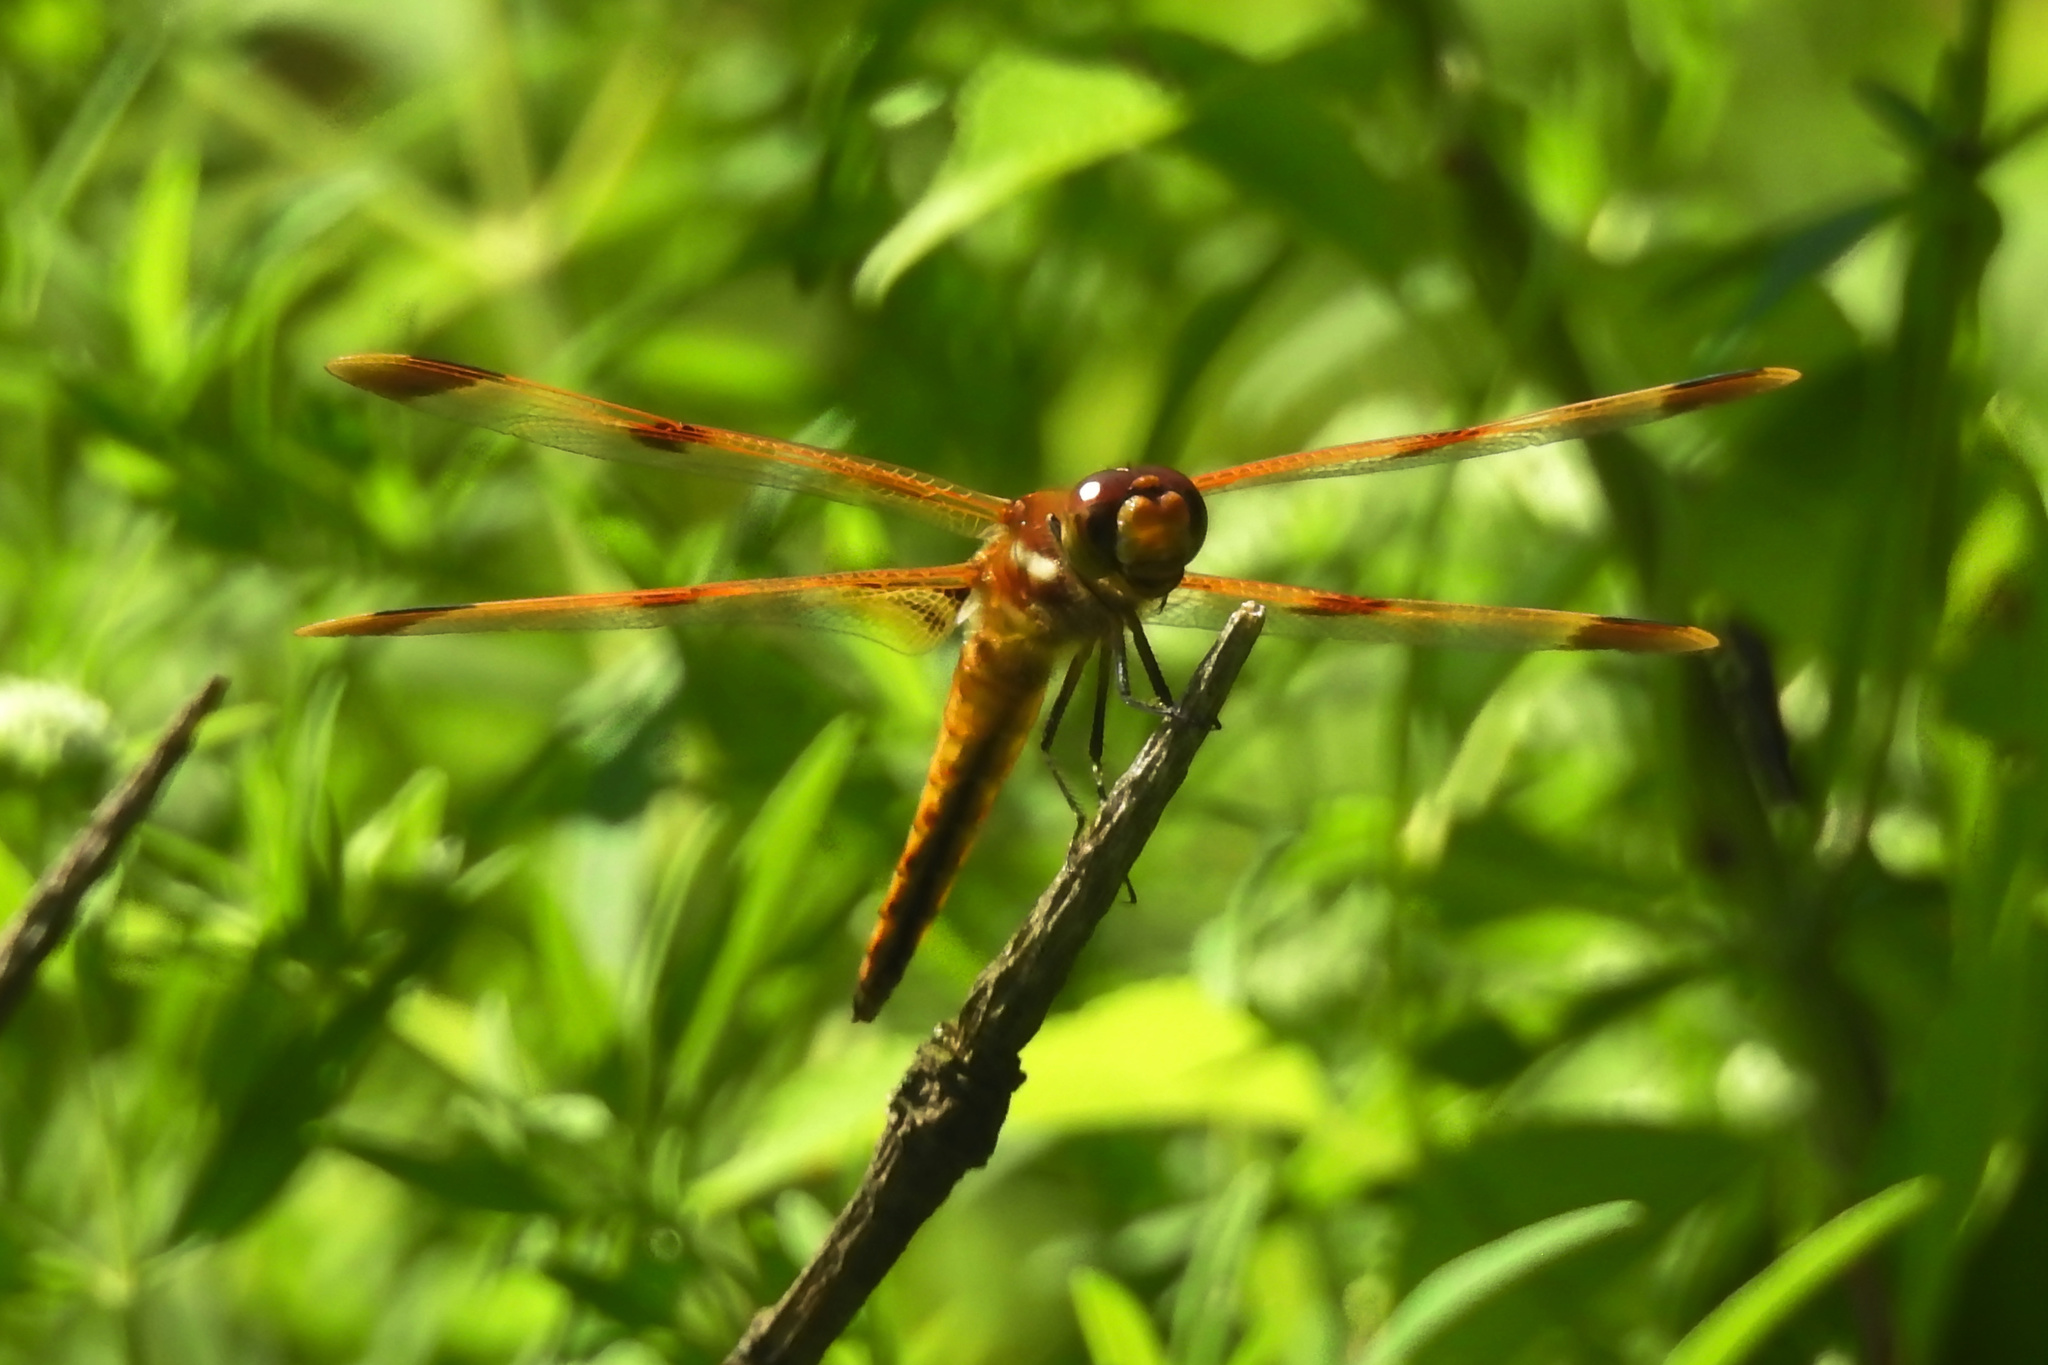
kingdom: Animalia
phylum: Arthropoda
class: Insecta
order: Odonata
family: Libellulidae
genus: Libellula
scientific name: Libellula semifasciata
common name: Painted skimmer
